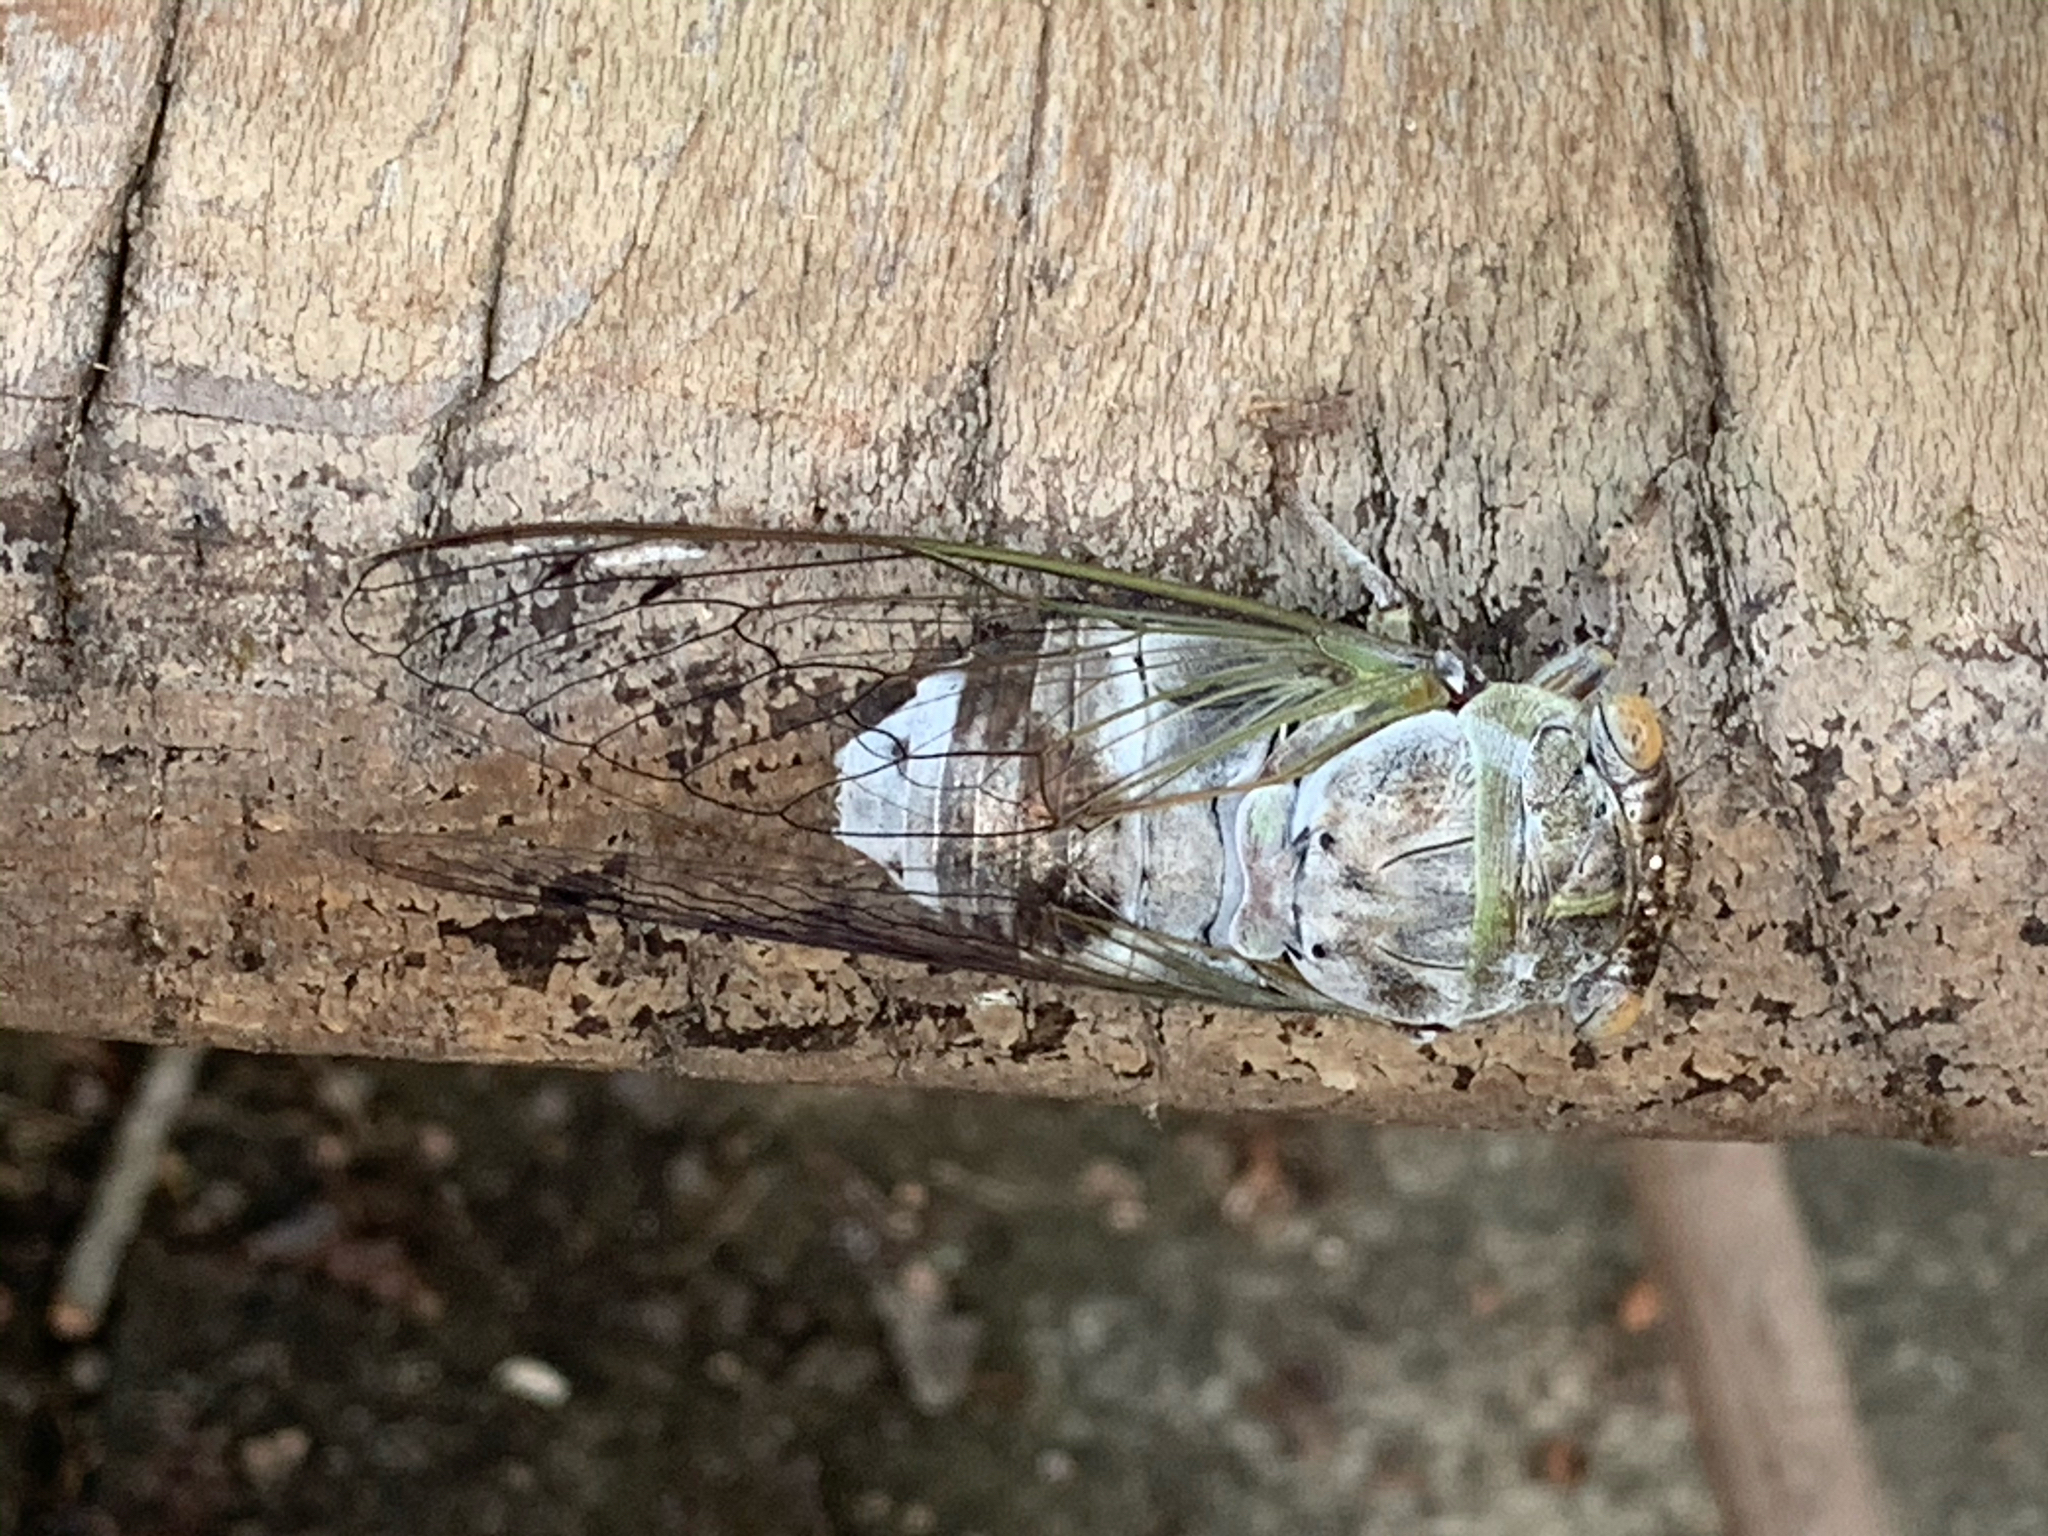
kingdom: Animalia
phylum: Arthropoda
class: Insecta
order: Hemiptera
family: Cicadidae
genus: Diceroprocta
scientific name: Diceroprocta grossa
